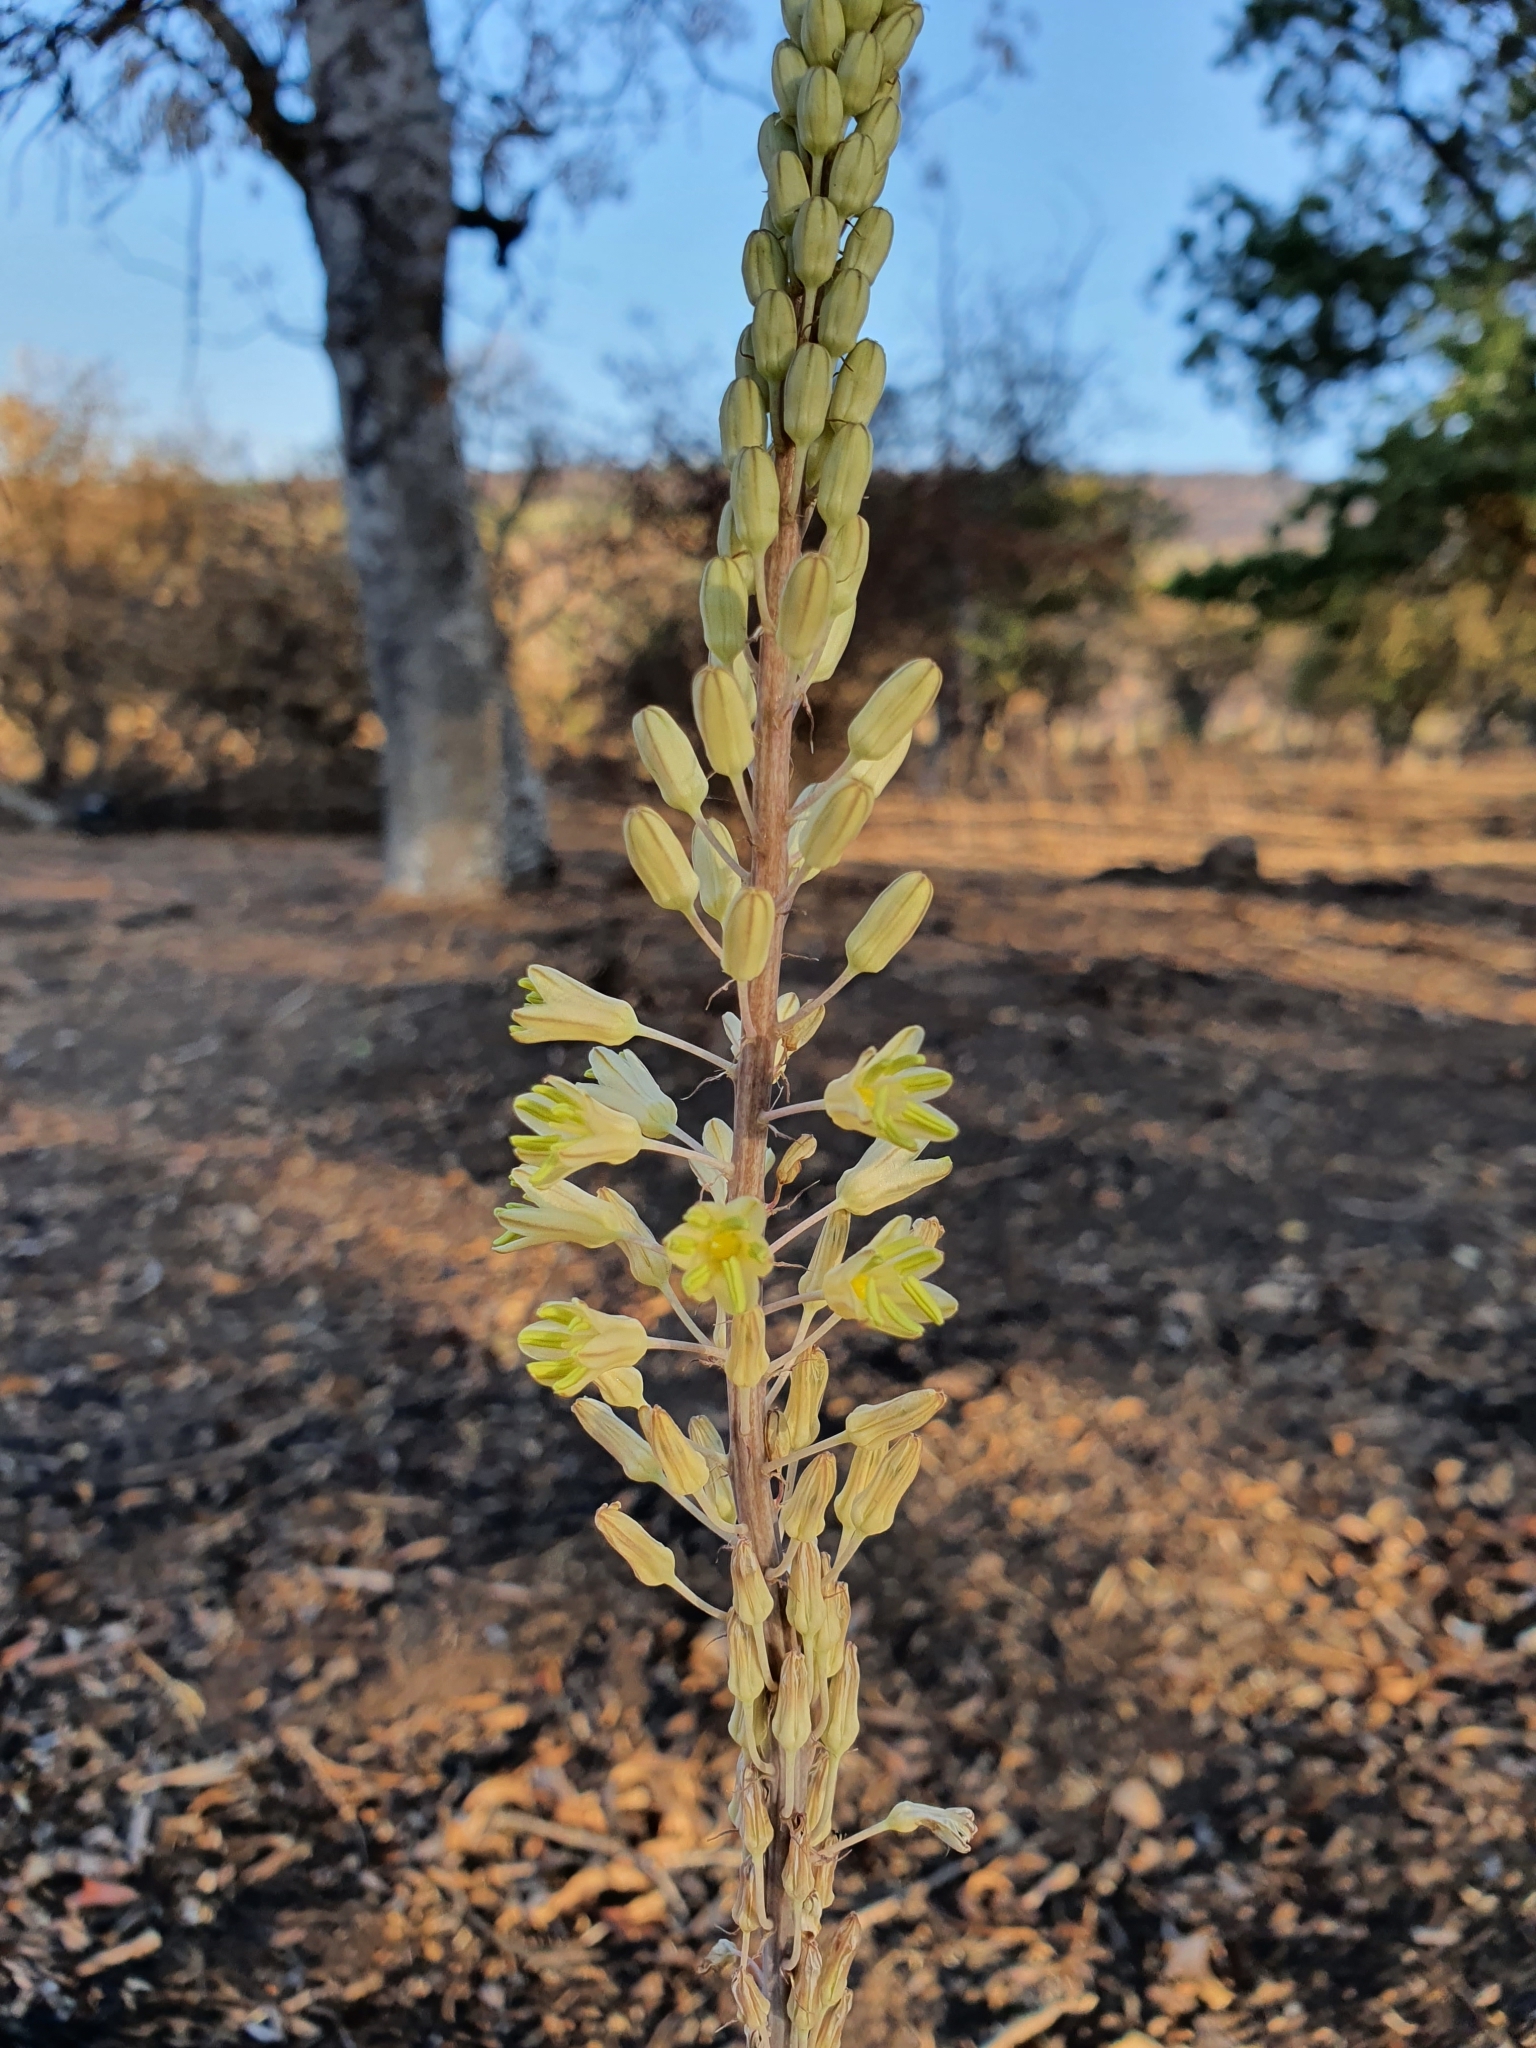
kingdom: Plantae
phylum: Tracheophyta
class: Liliopsida
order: Asparagales
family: Asparagaceae
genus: Drimia
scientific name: Drimia anthericoides
